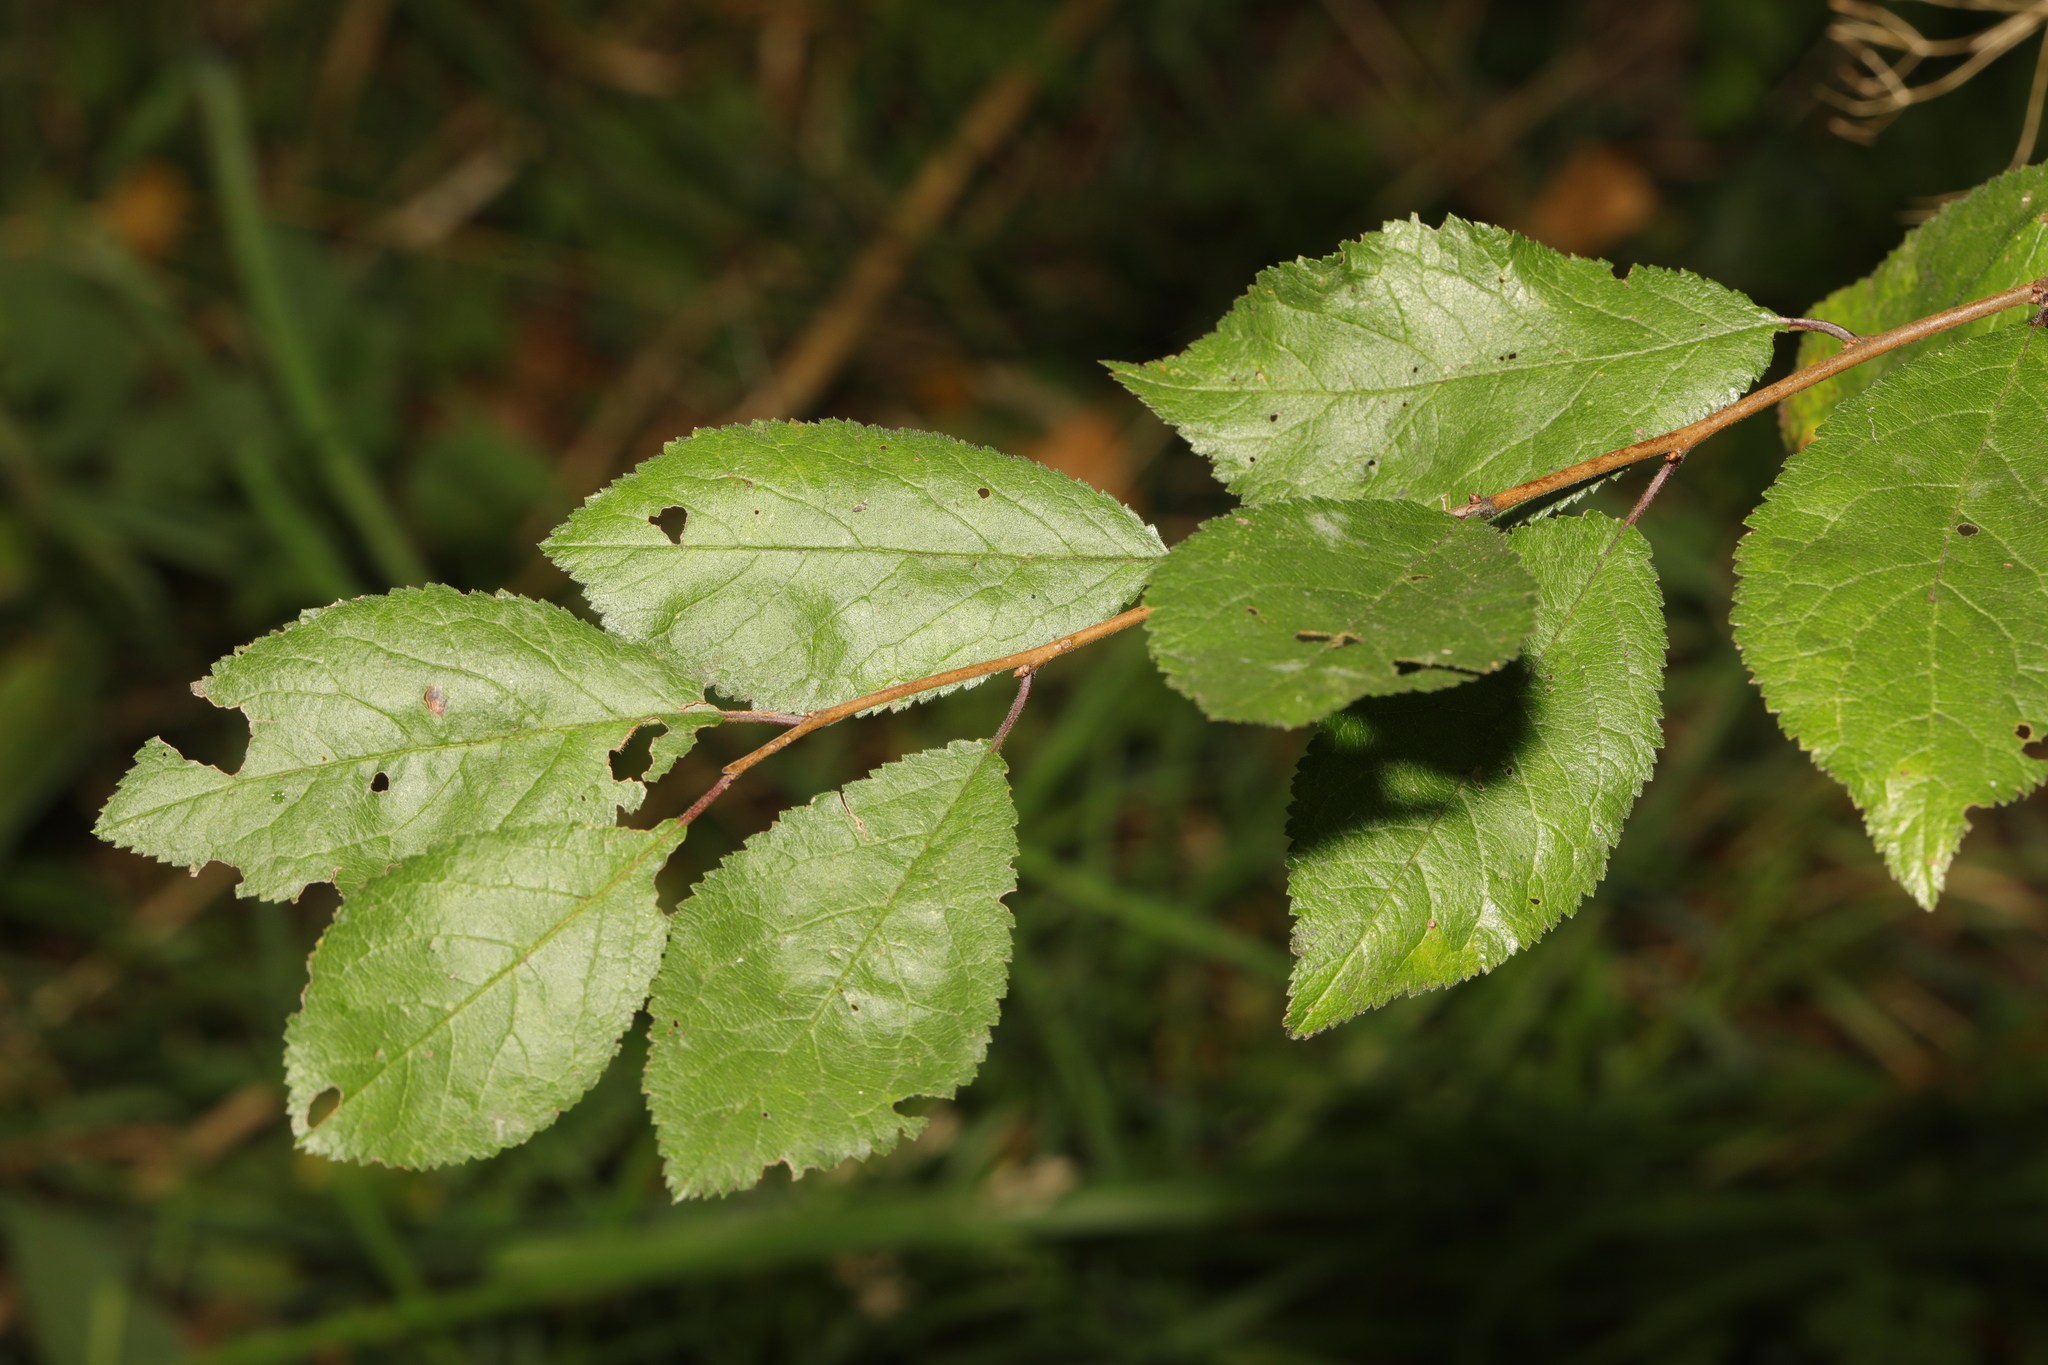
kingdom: Plantae
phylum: Tracheophyta
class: Magnoliopsida
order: Rosales
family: Rosaceae
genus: Prunus
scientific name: Prunus cerasifera
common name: Cherry plum
